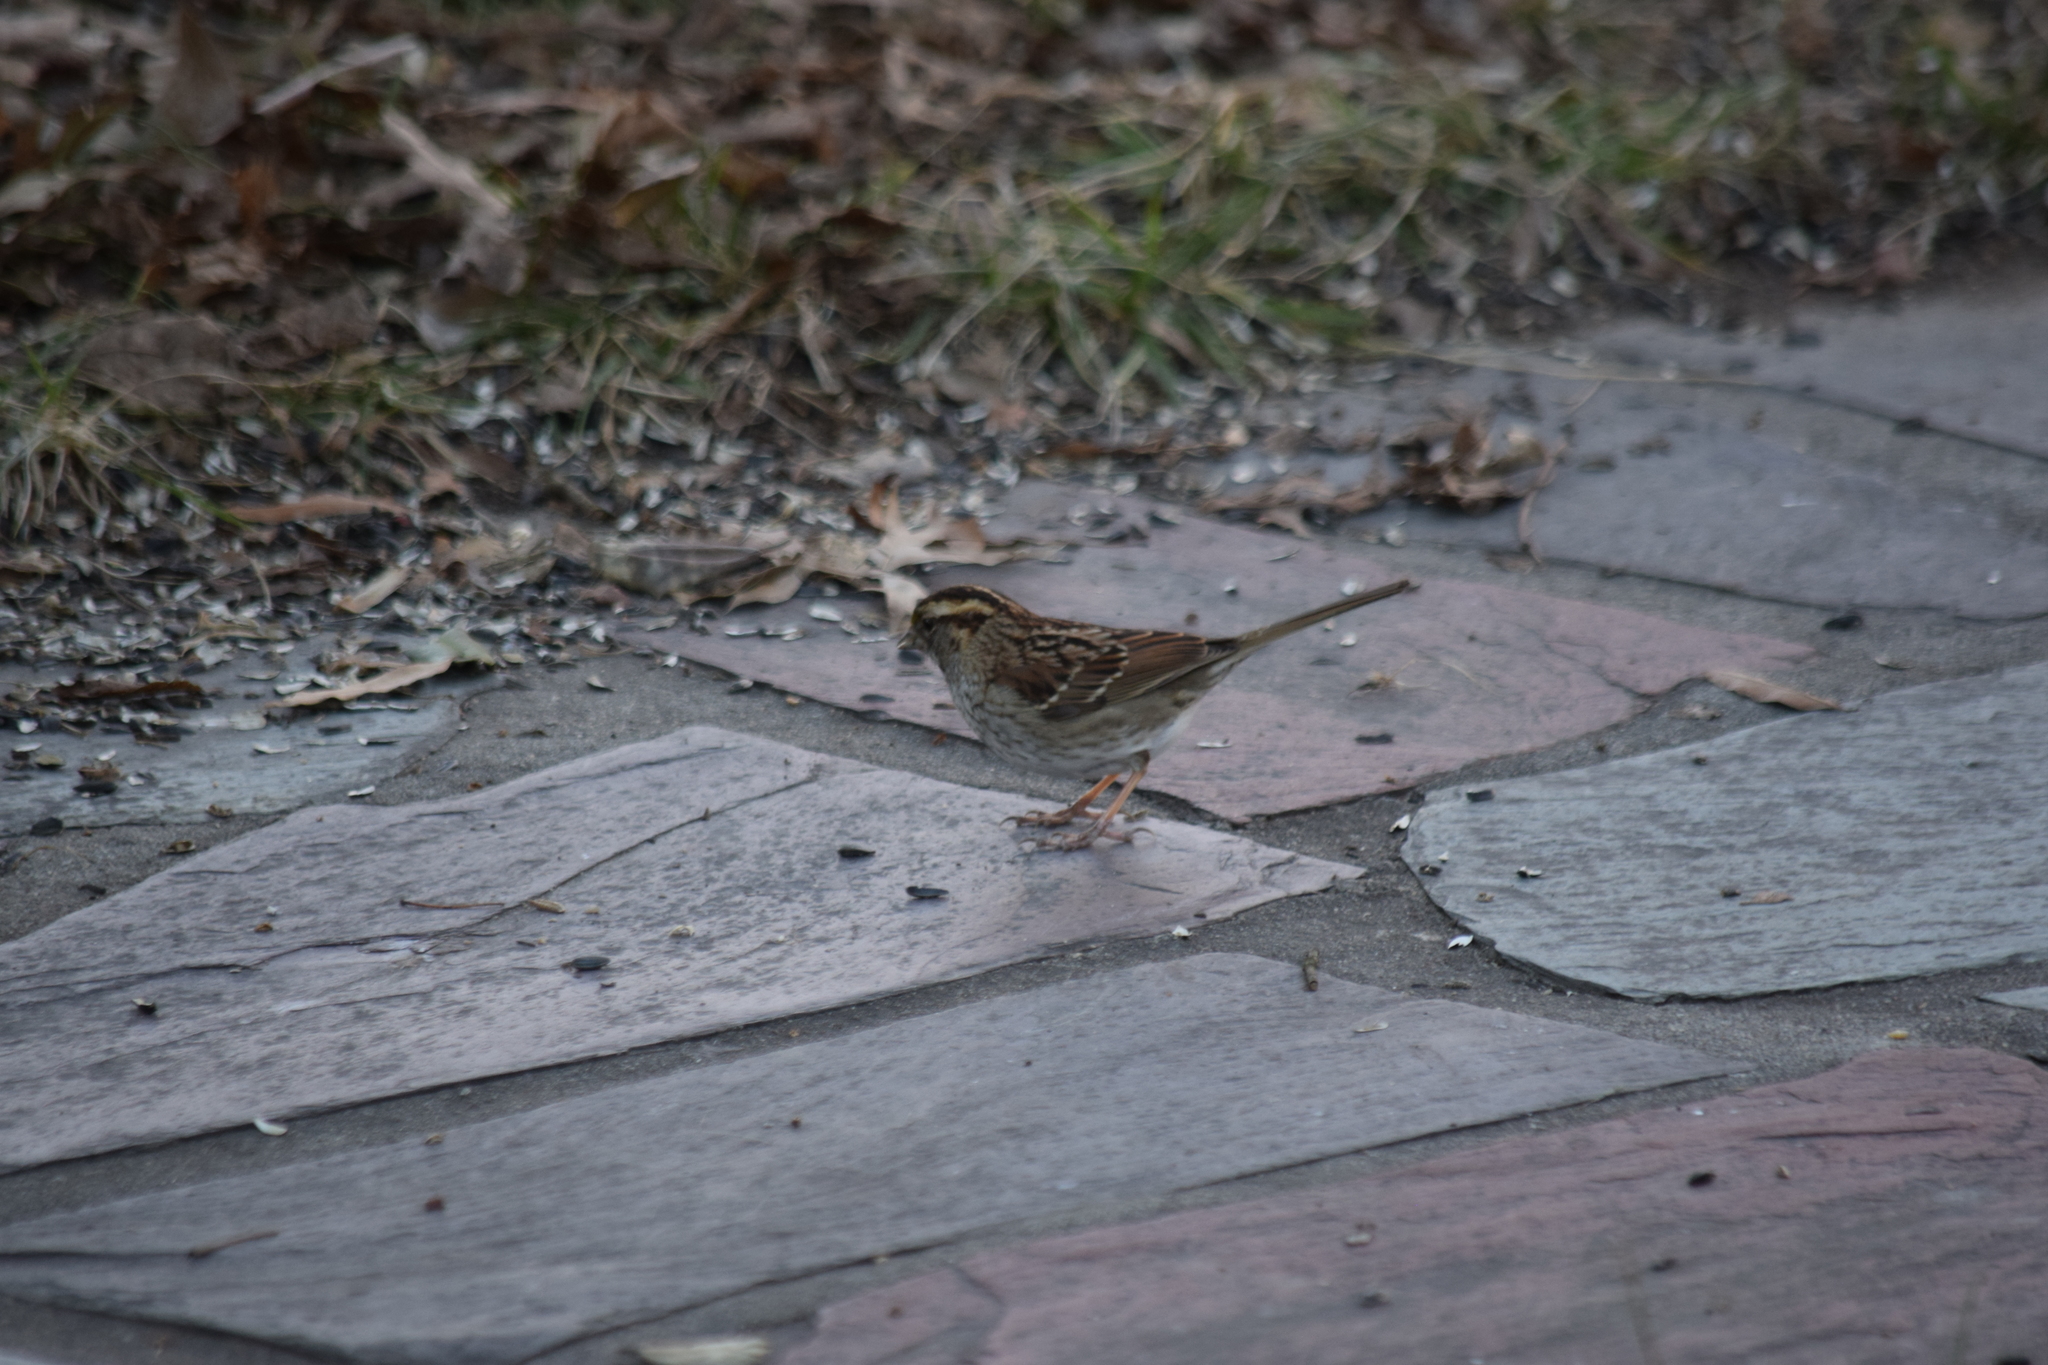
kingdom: Animalia
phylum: Chordata
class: Aves
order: Passeriformes
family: Passerellidae
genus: Zonotrichia
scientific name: Zonotrichia albicollis
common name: White-throated sparrow
